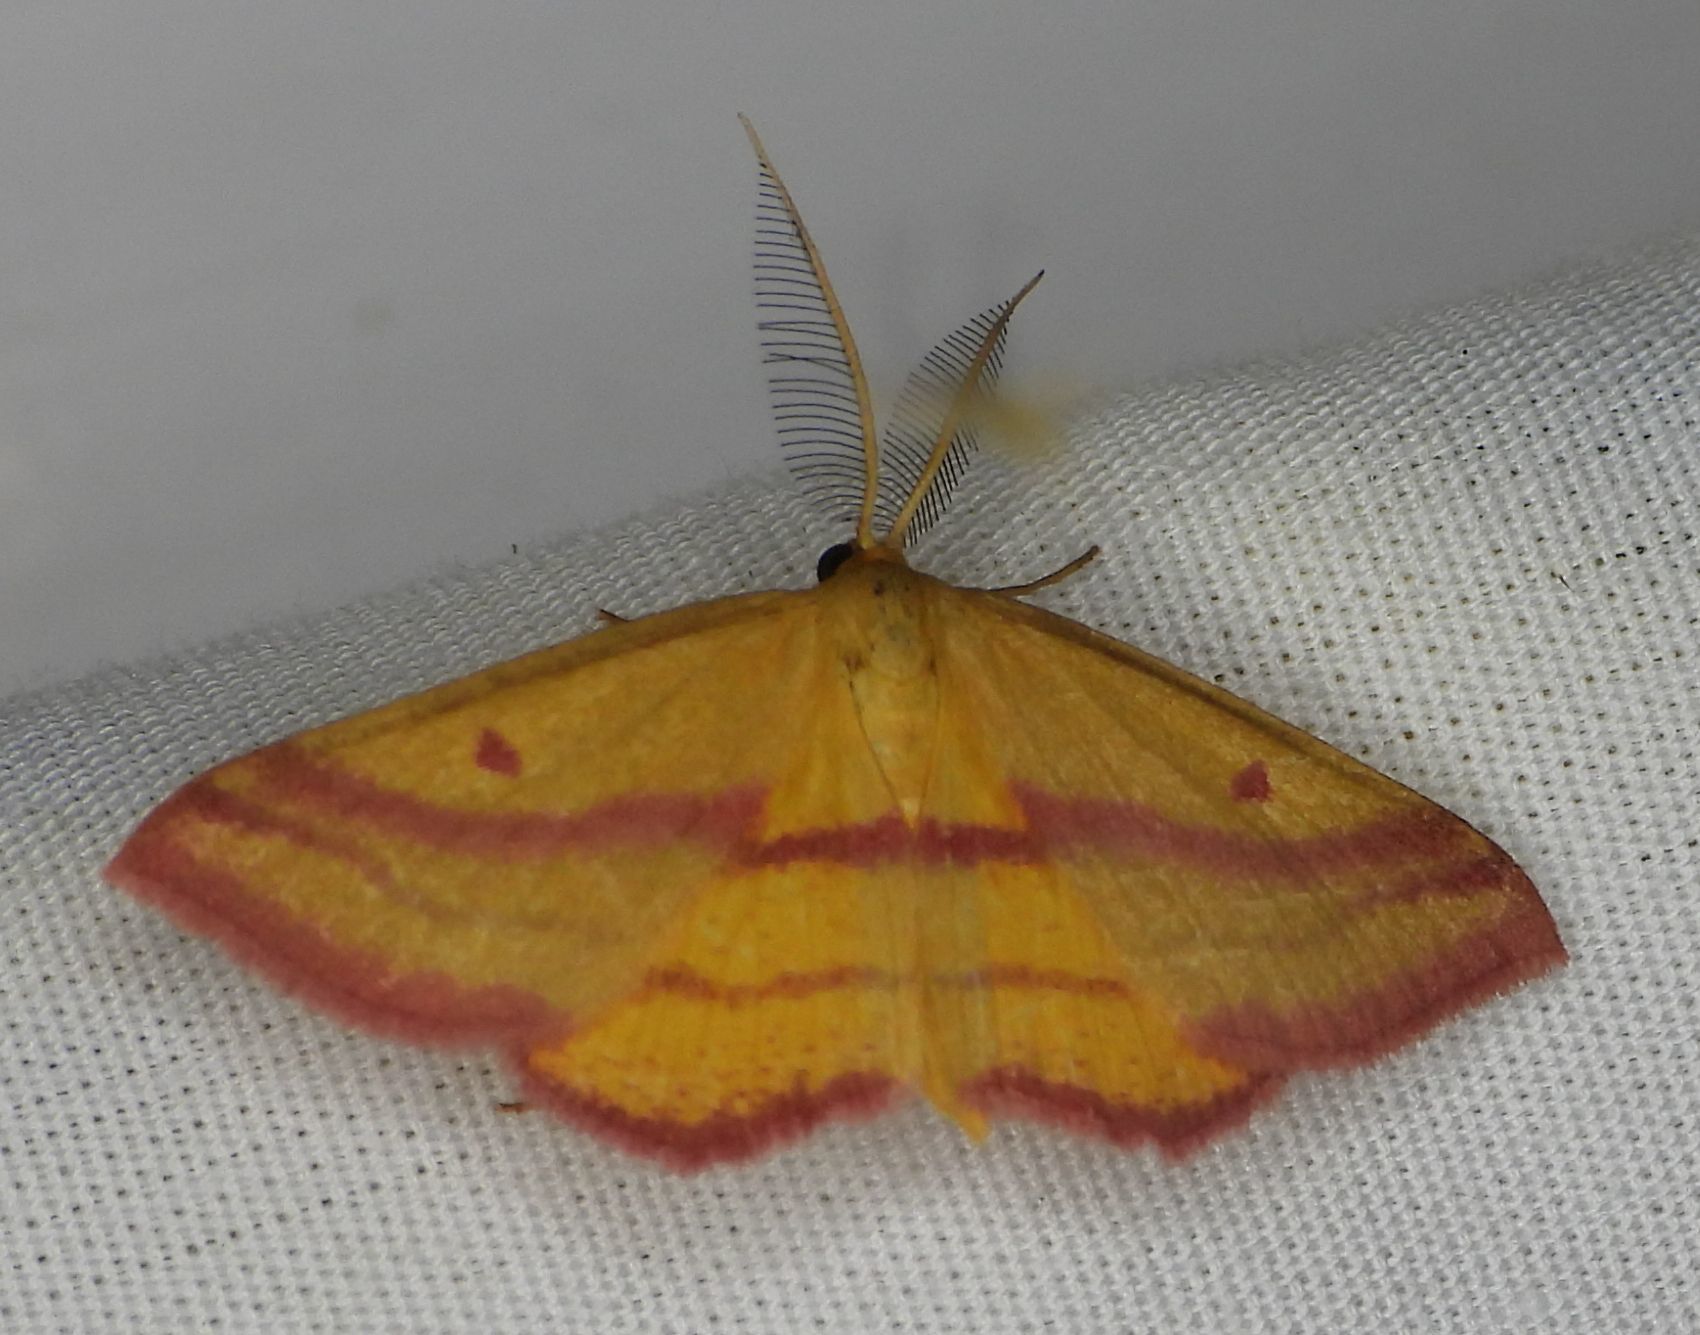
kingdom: Animalia
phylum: Arthropoda
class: Insecta
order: Lepidoptera
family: Geometridae
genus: Haematopis
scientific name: Haematopis grataria
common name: Chickweed geometer
